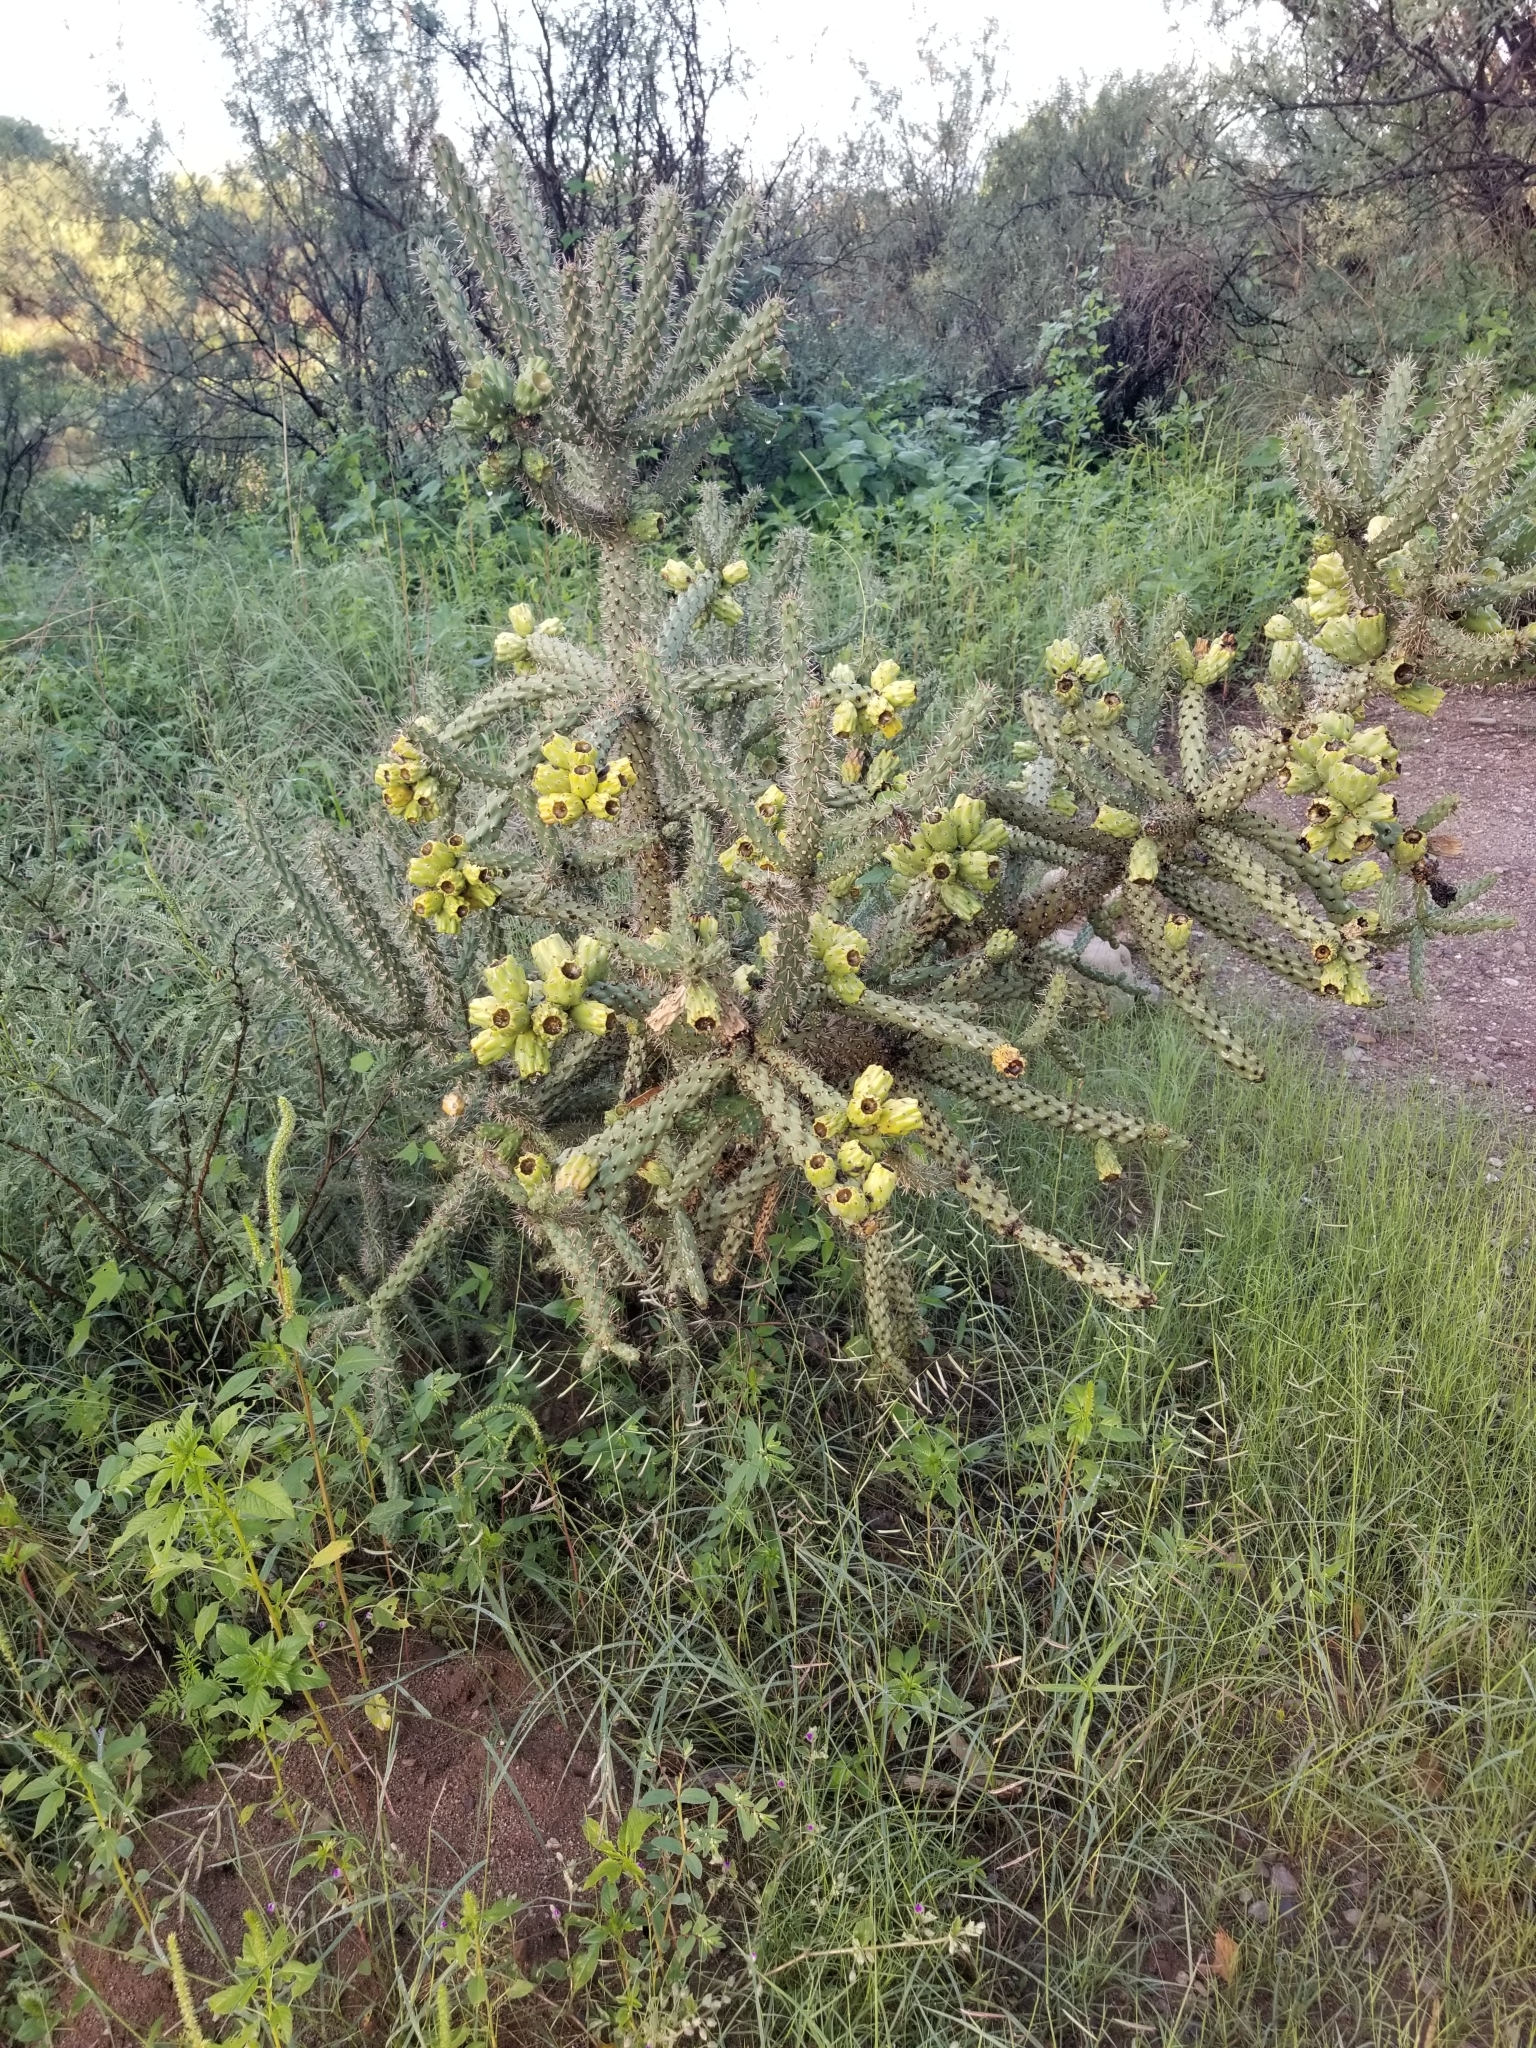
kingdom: Plantae
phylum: Tracheophyta
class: Magnoliopsida
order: Caryophyllales
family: Cactaceae
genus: Cylindropuntia
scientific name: Cylindropuntia imbricata
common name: Candelabrum cactus
